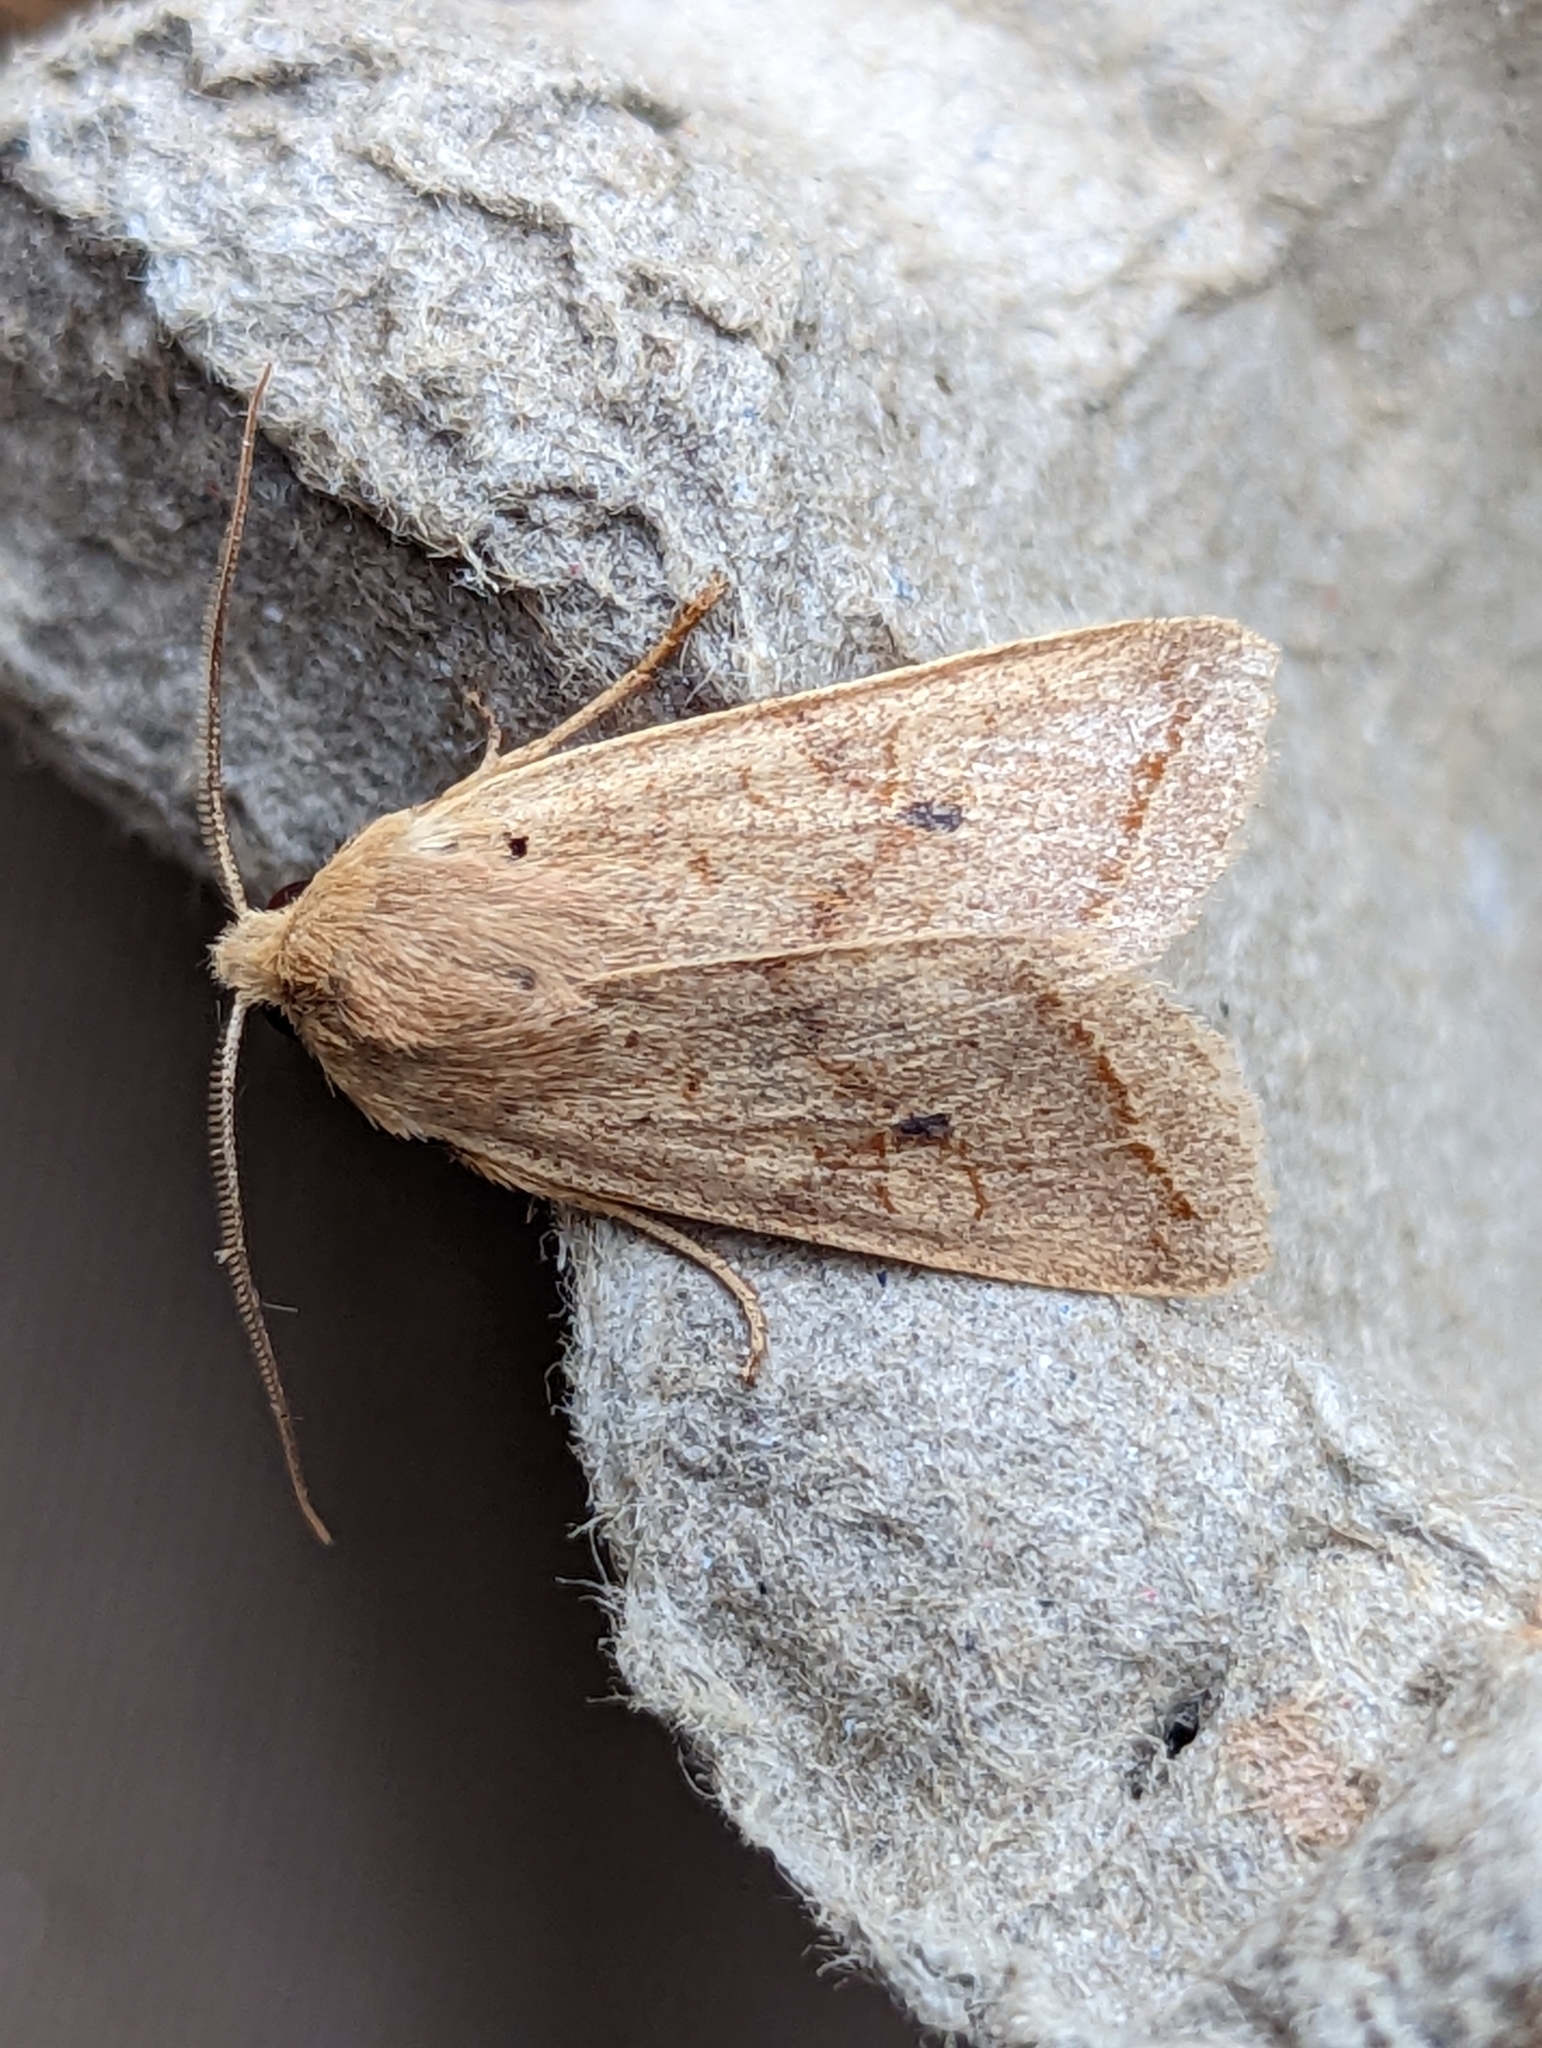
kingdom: Animalia
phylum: Arthropoda
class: Insecta
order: Lepidoptera
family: Noctuidae
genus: Agrochola
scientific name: Agrochola macilenta
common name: Yellow-line quaker
